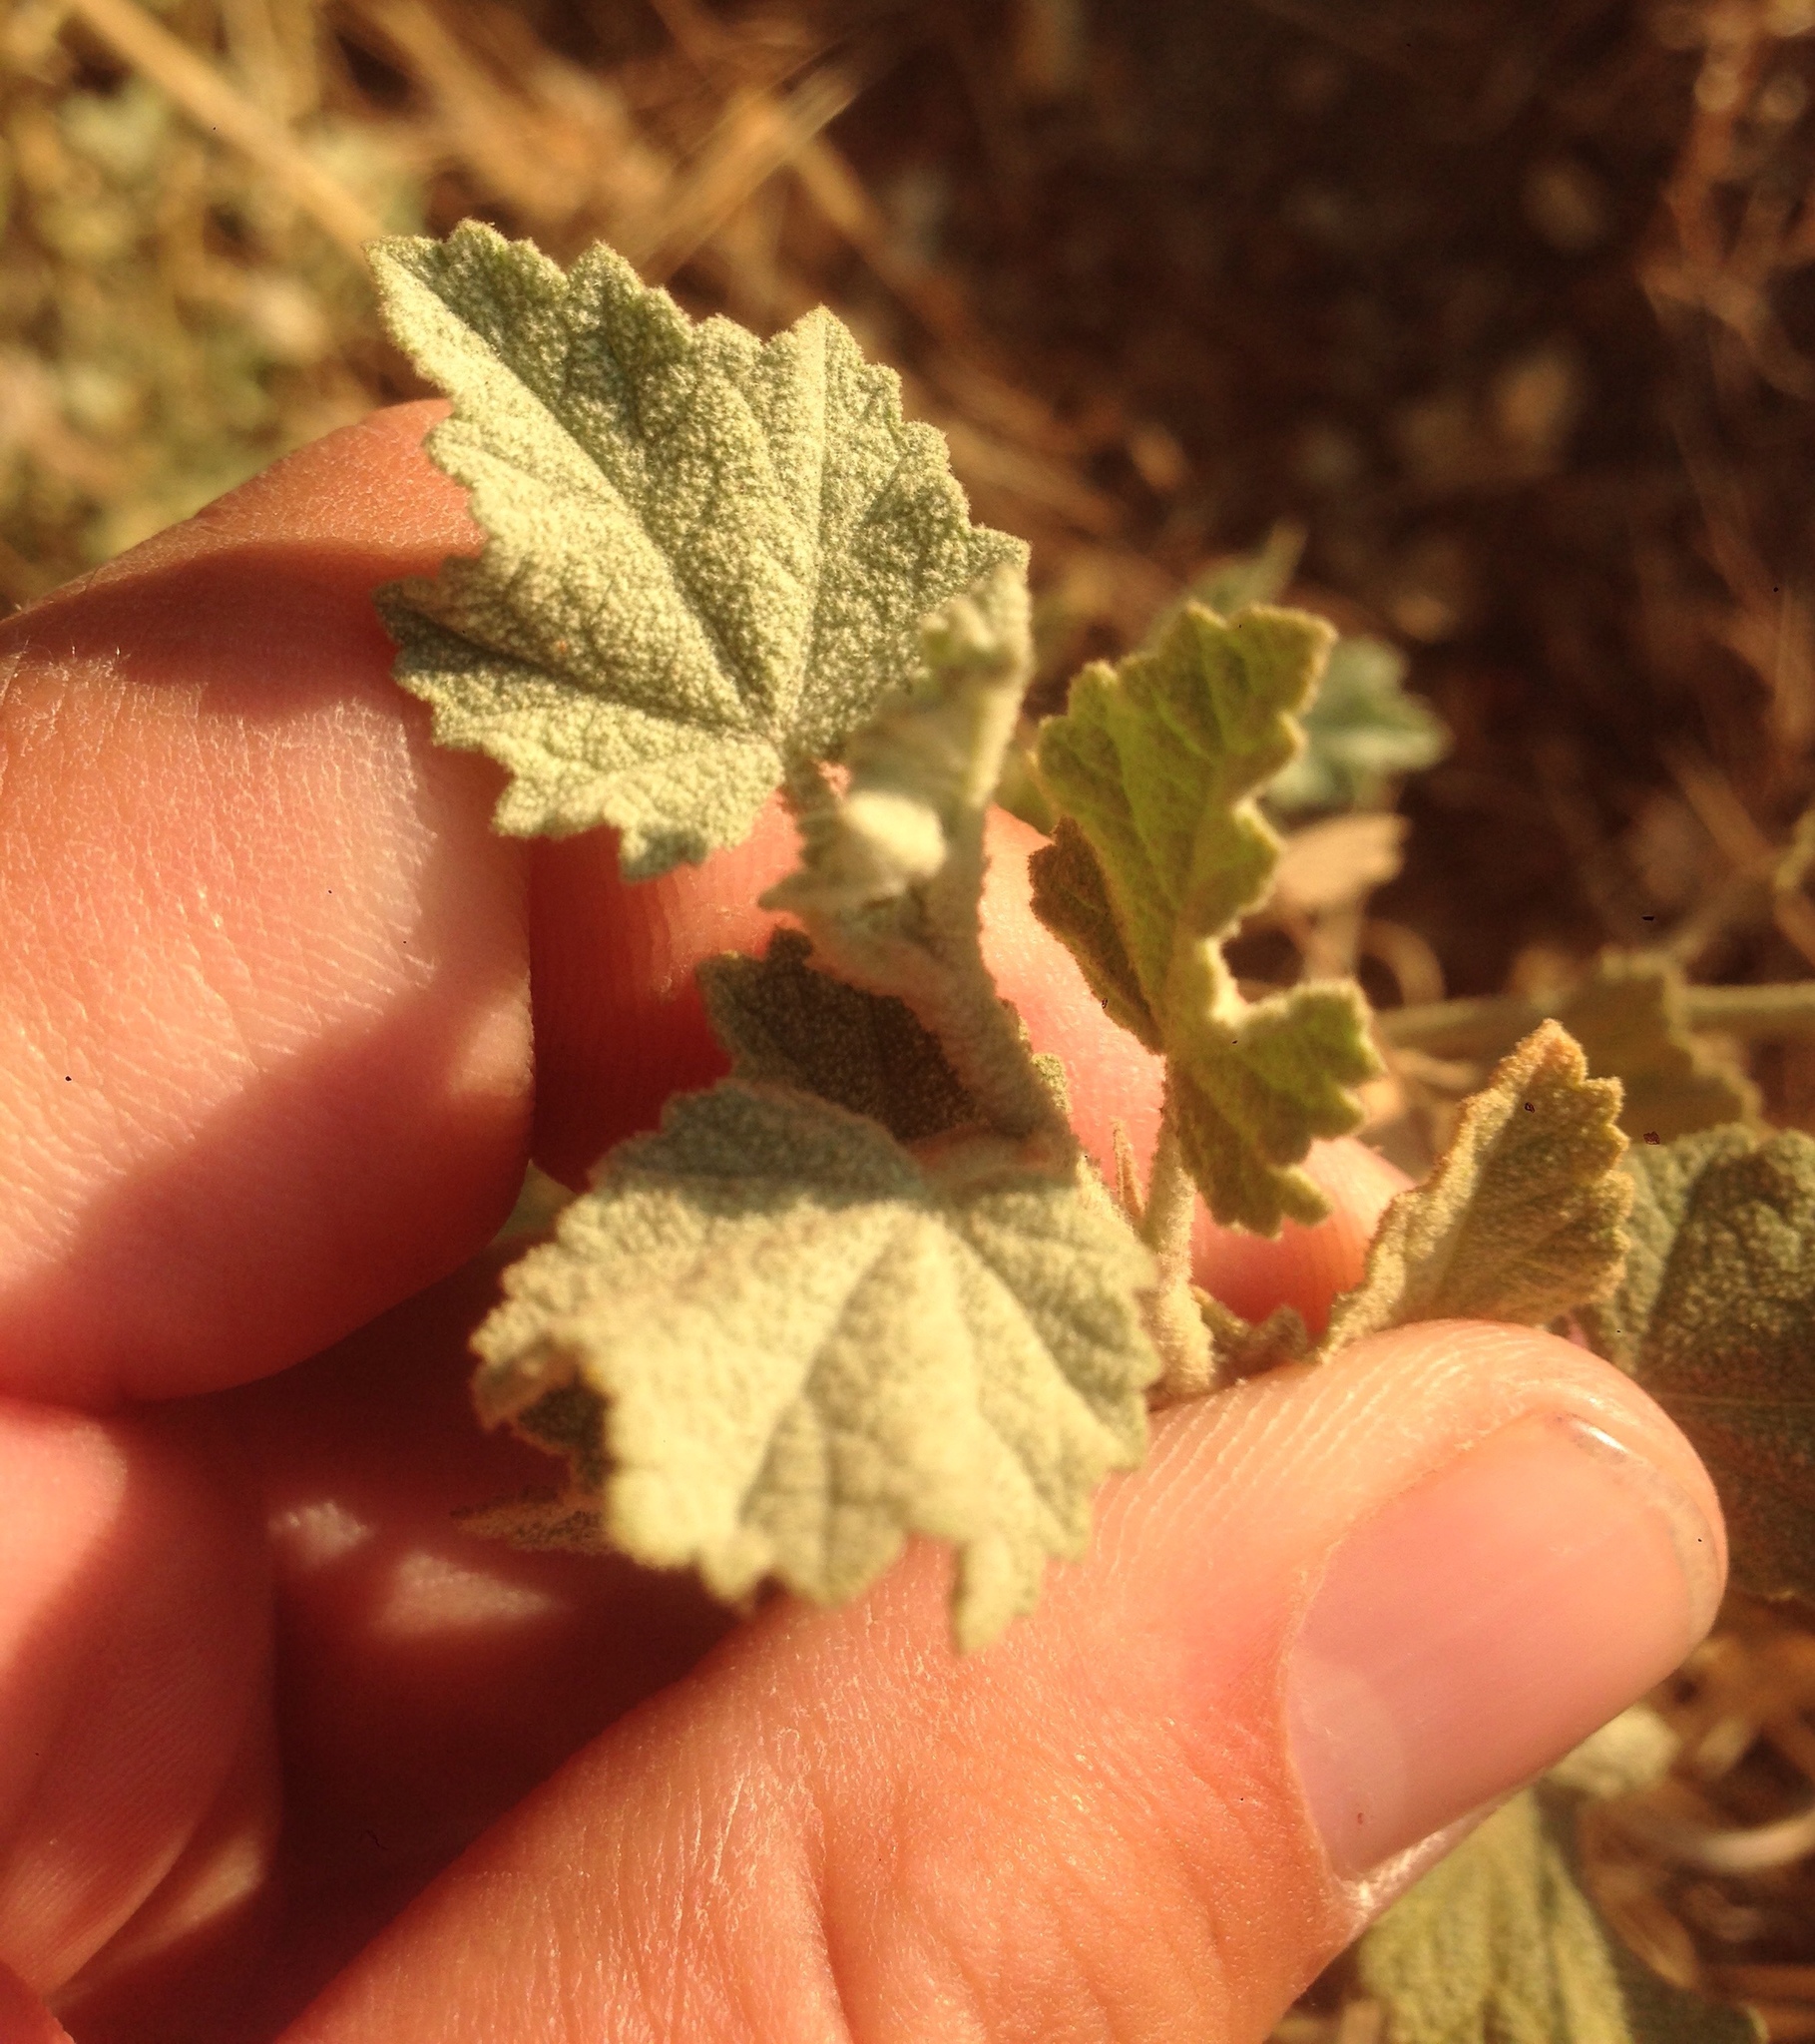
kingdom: Plantae
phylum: Tracheophyta
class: Magnoliopsida
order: Malvales
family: Malvaceae
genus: Malacothamnus
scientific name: Malacothamnus fasciculatus
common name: Sant cruz island bush-mallow
